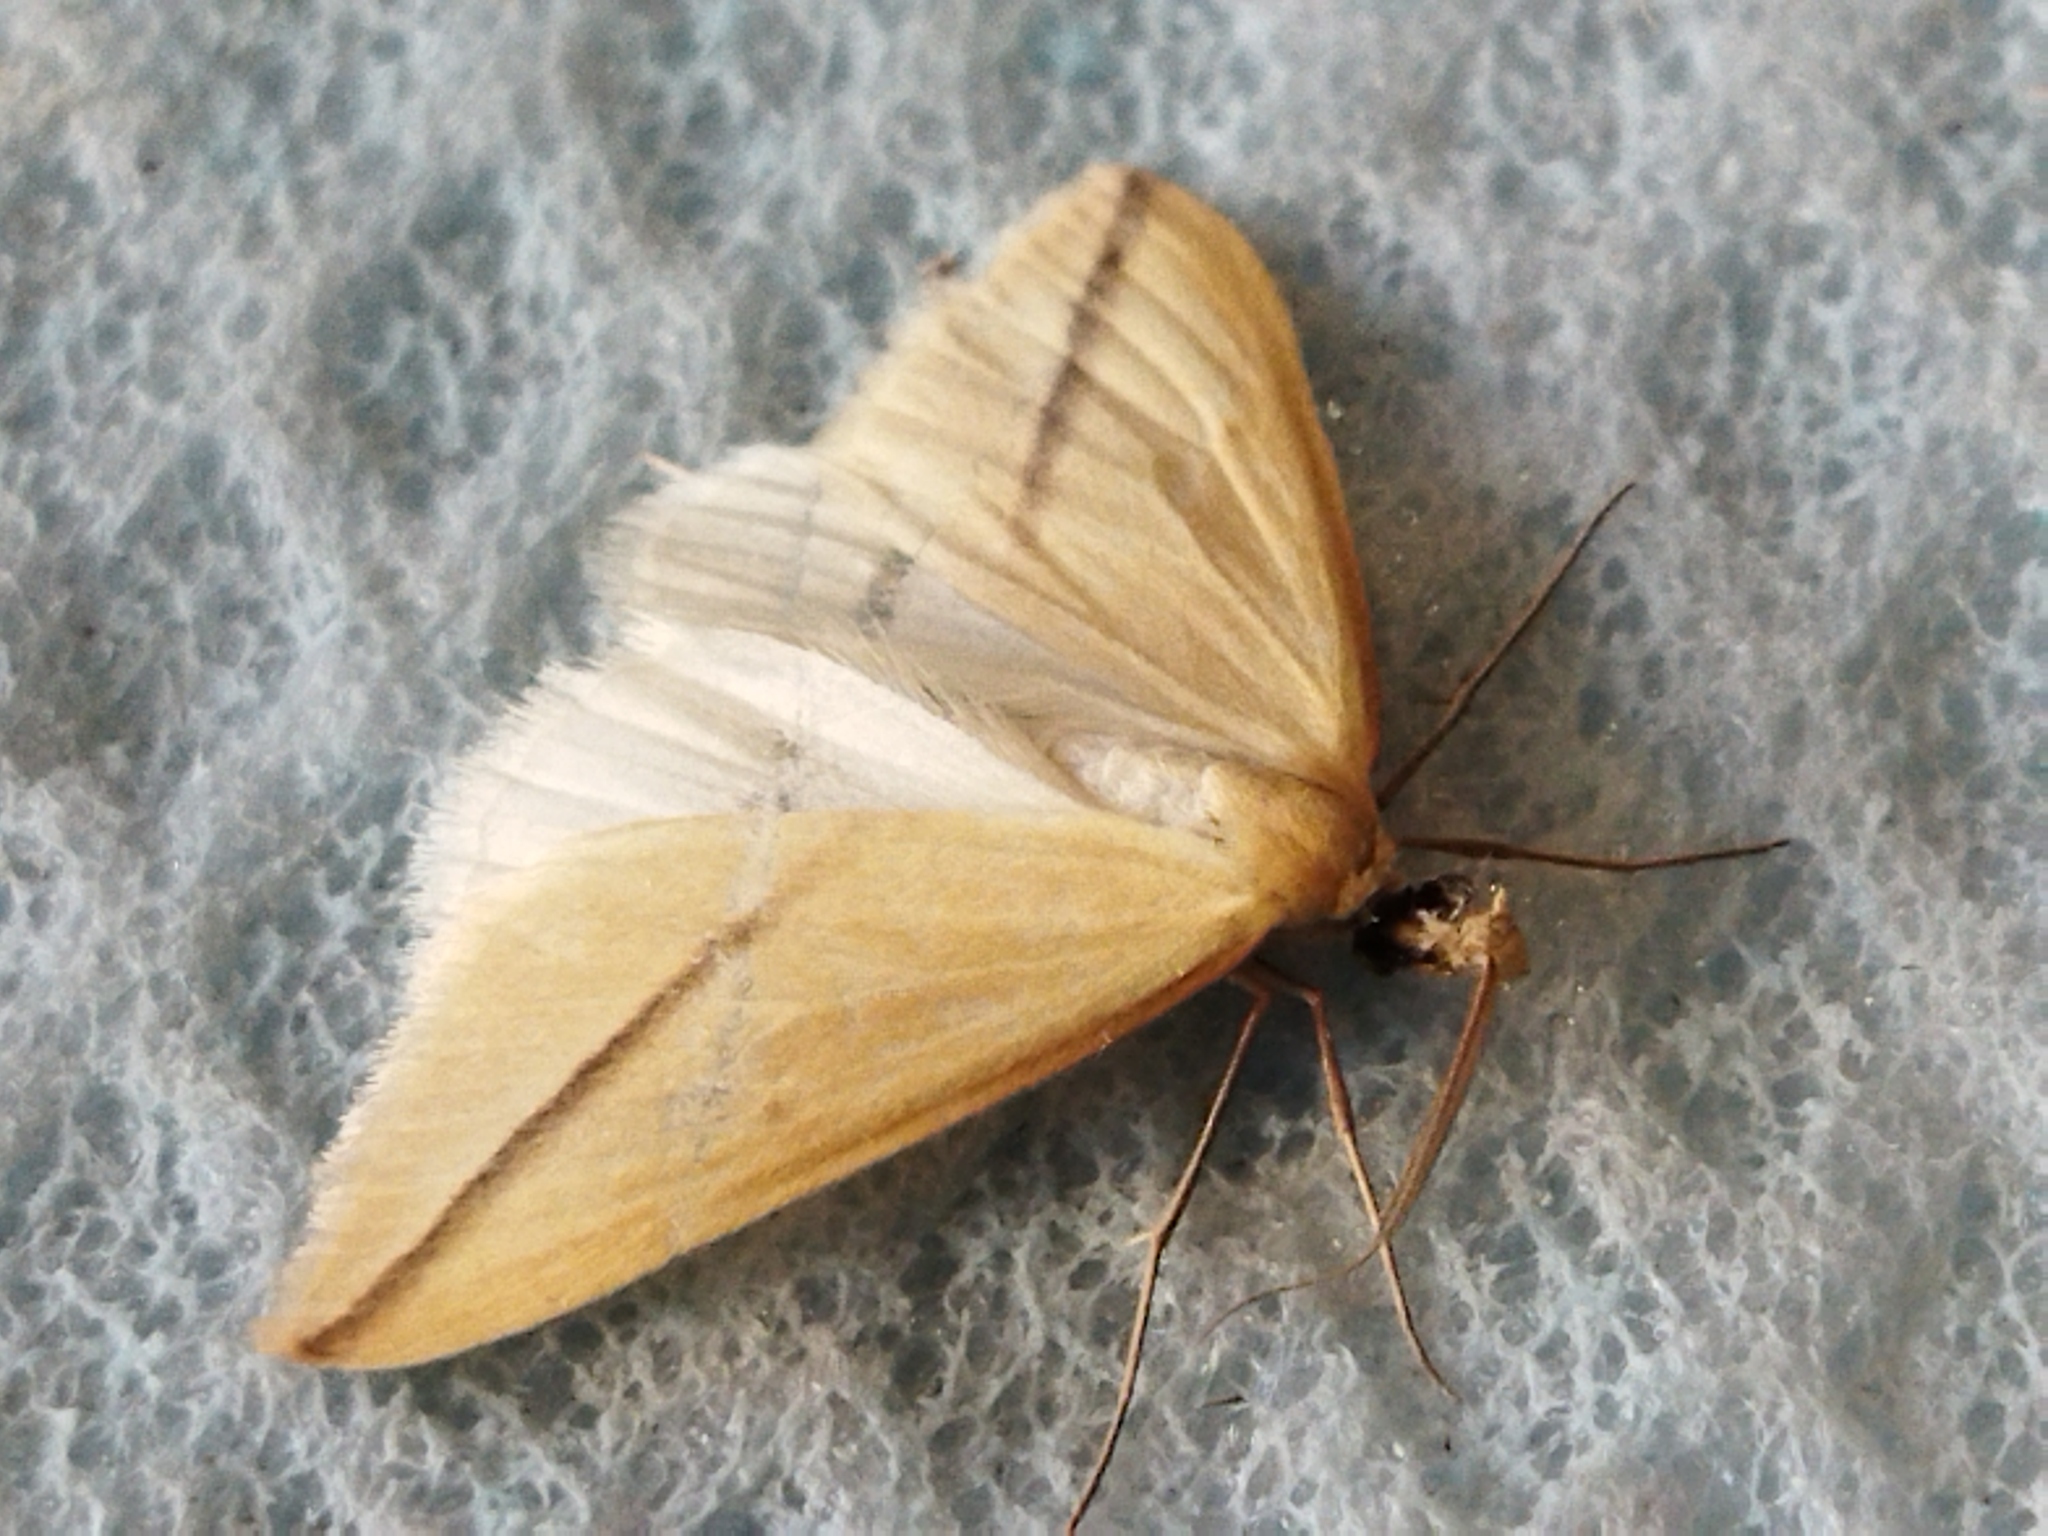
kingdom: Animalia
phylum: Arthropoda
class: Insecta
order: Lepidoptera
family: Geometridae
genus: Rhodometra
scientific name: Rhodometra sacraria
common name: Vestal
